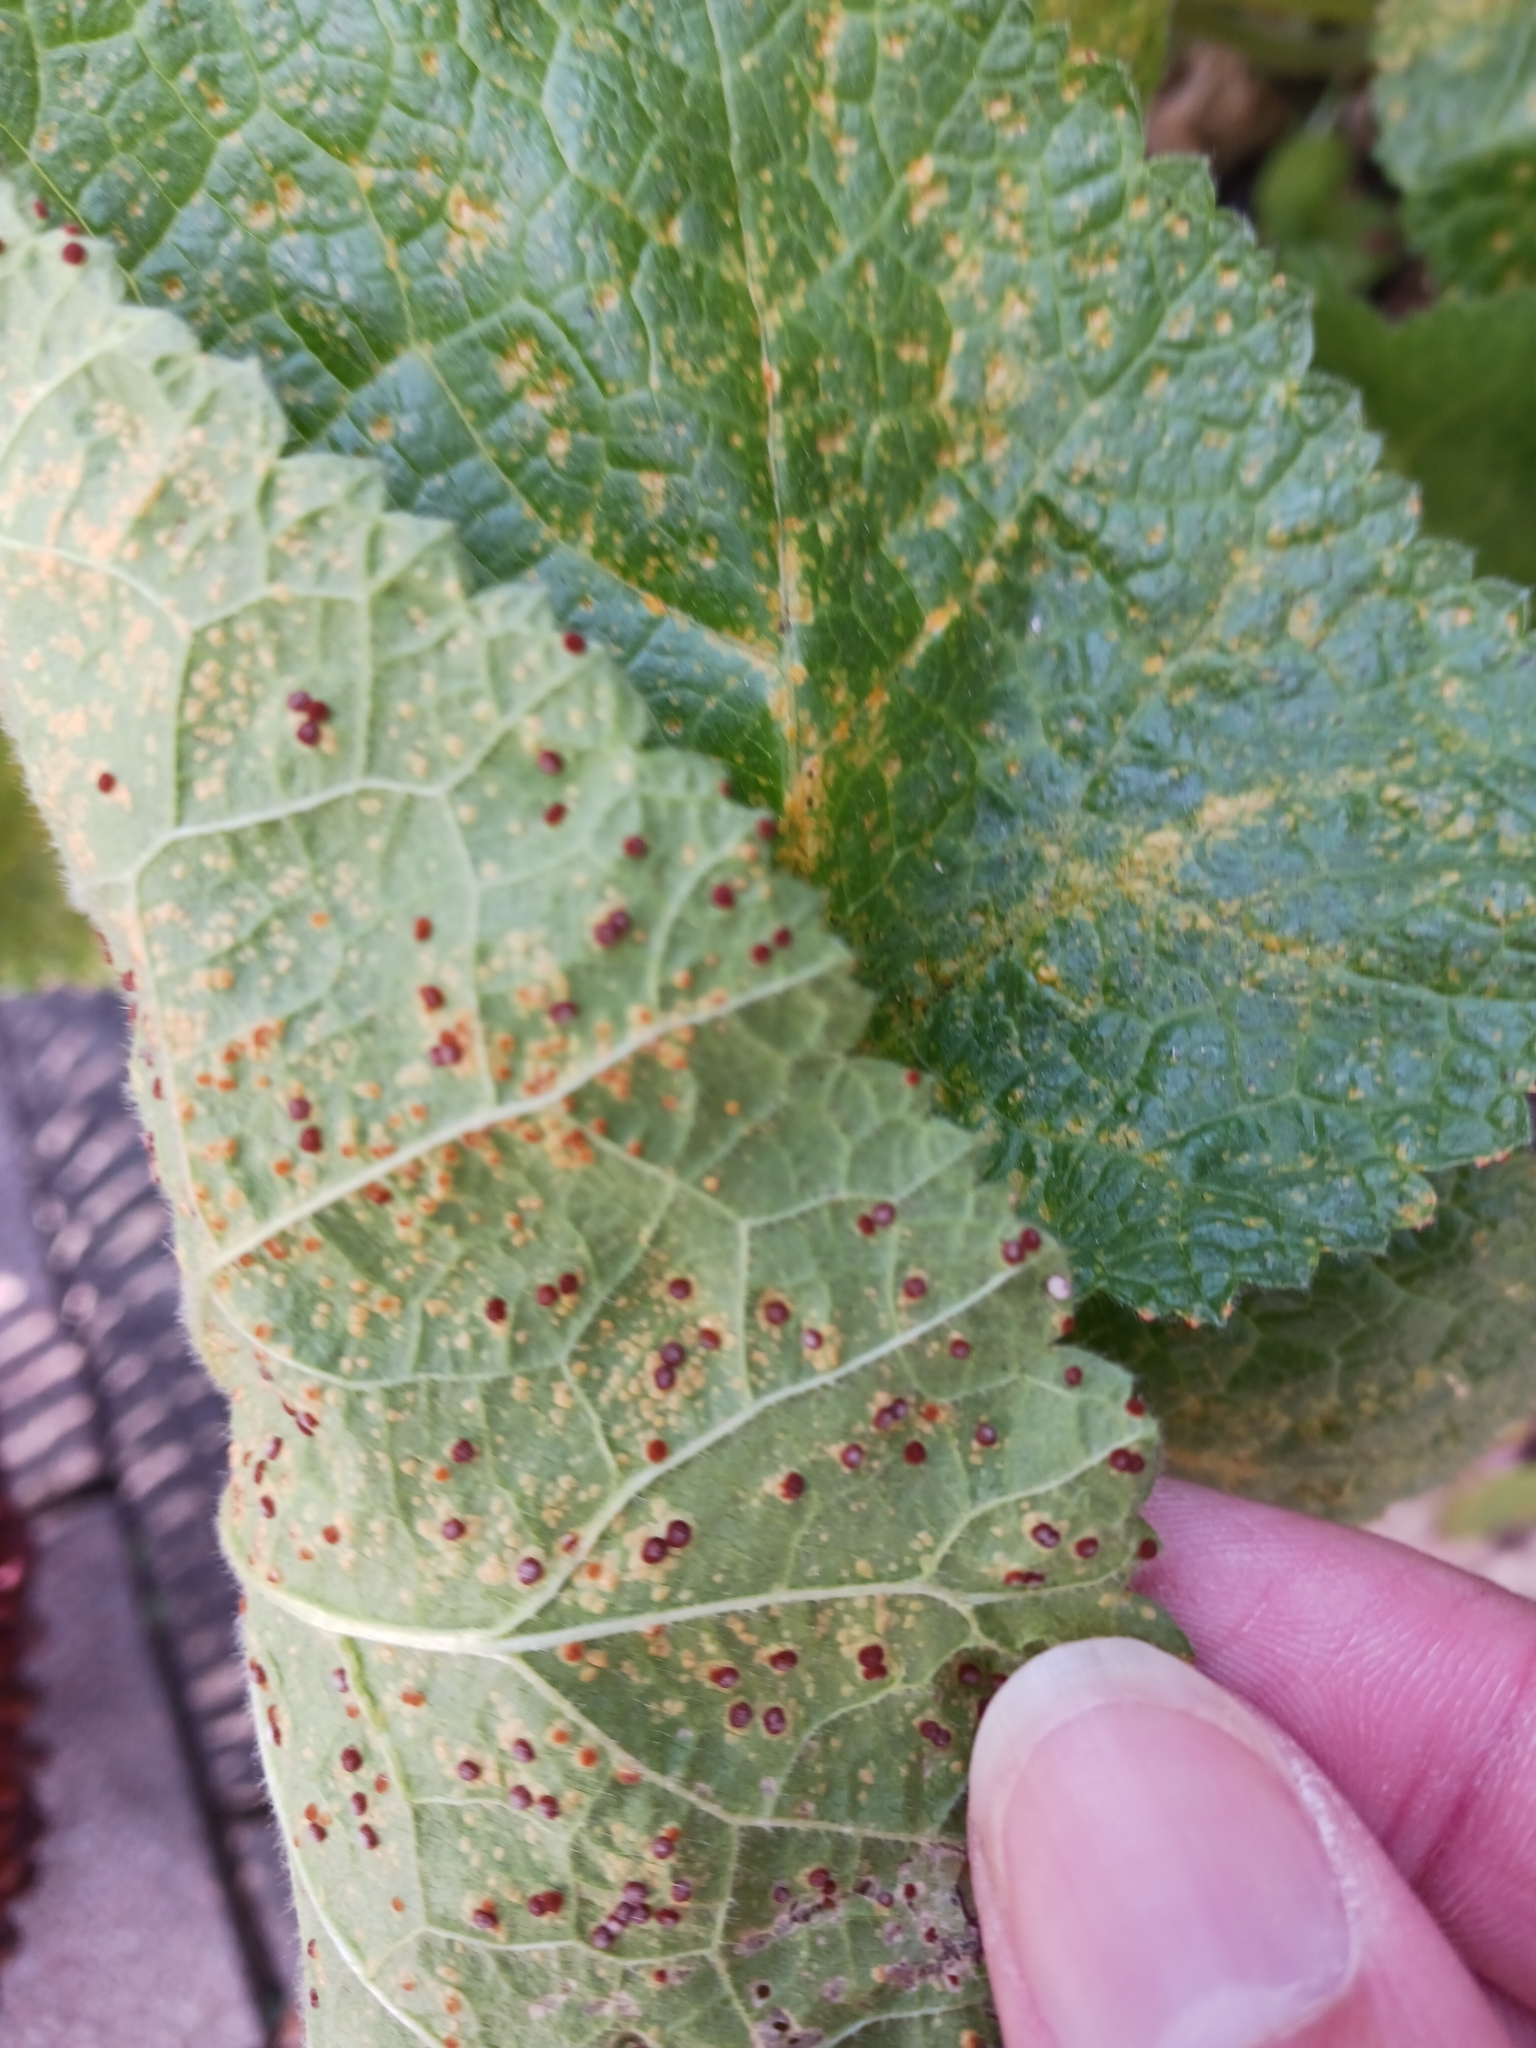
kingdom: Fungi
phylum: Basidiomycota
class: Pucciniomycetes
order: Pucciniales
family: Pucciniaceae
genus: Puccinia
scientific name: Puccinia malvacearum
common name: Hollyhock rust
